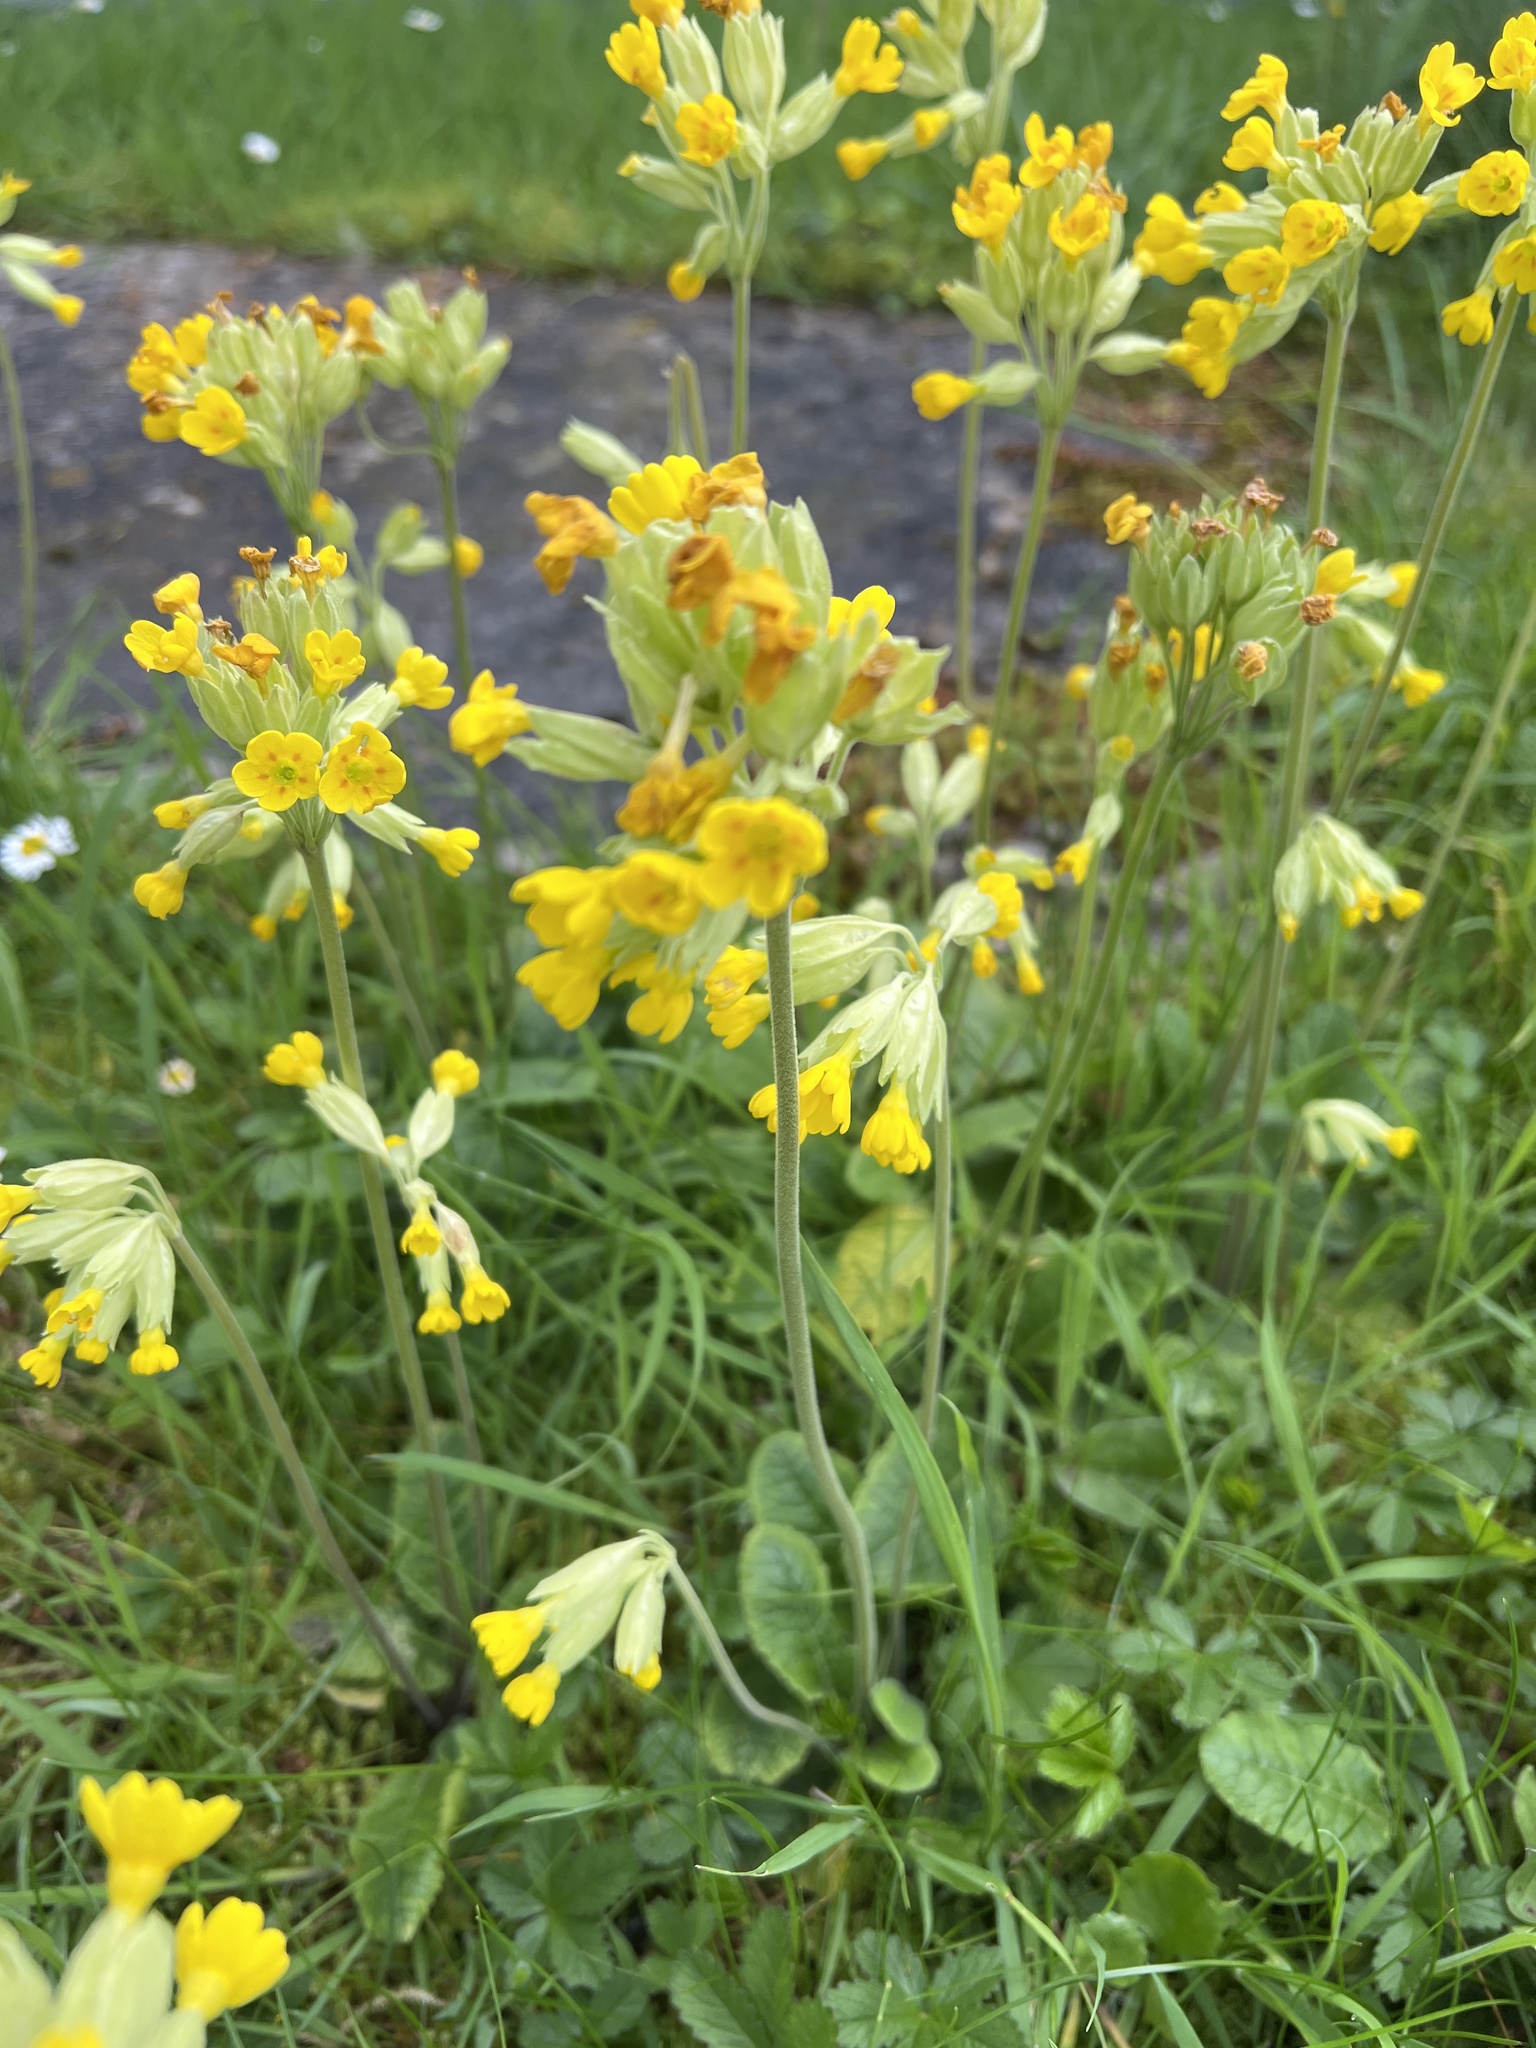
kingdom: Plantae
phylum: Tracheophyta
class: Magnoliopsida
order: Ericales
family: Primulaceae
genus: Primula
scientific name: Primula veris
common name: Cowslip
